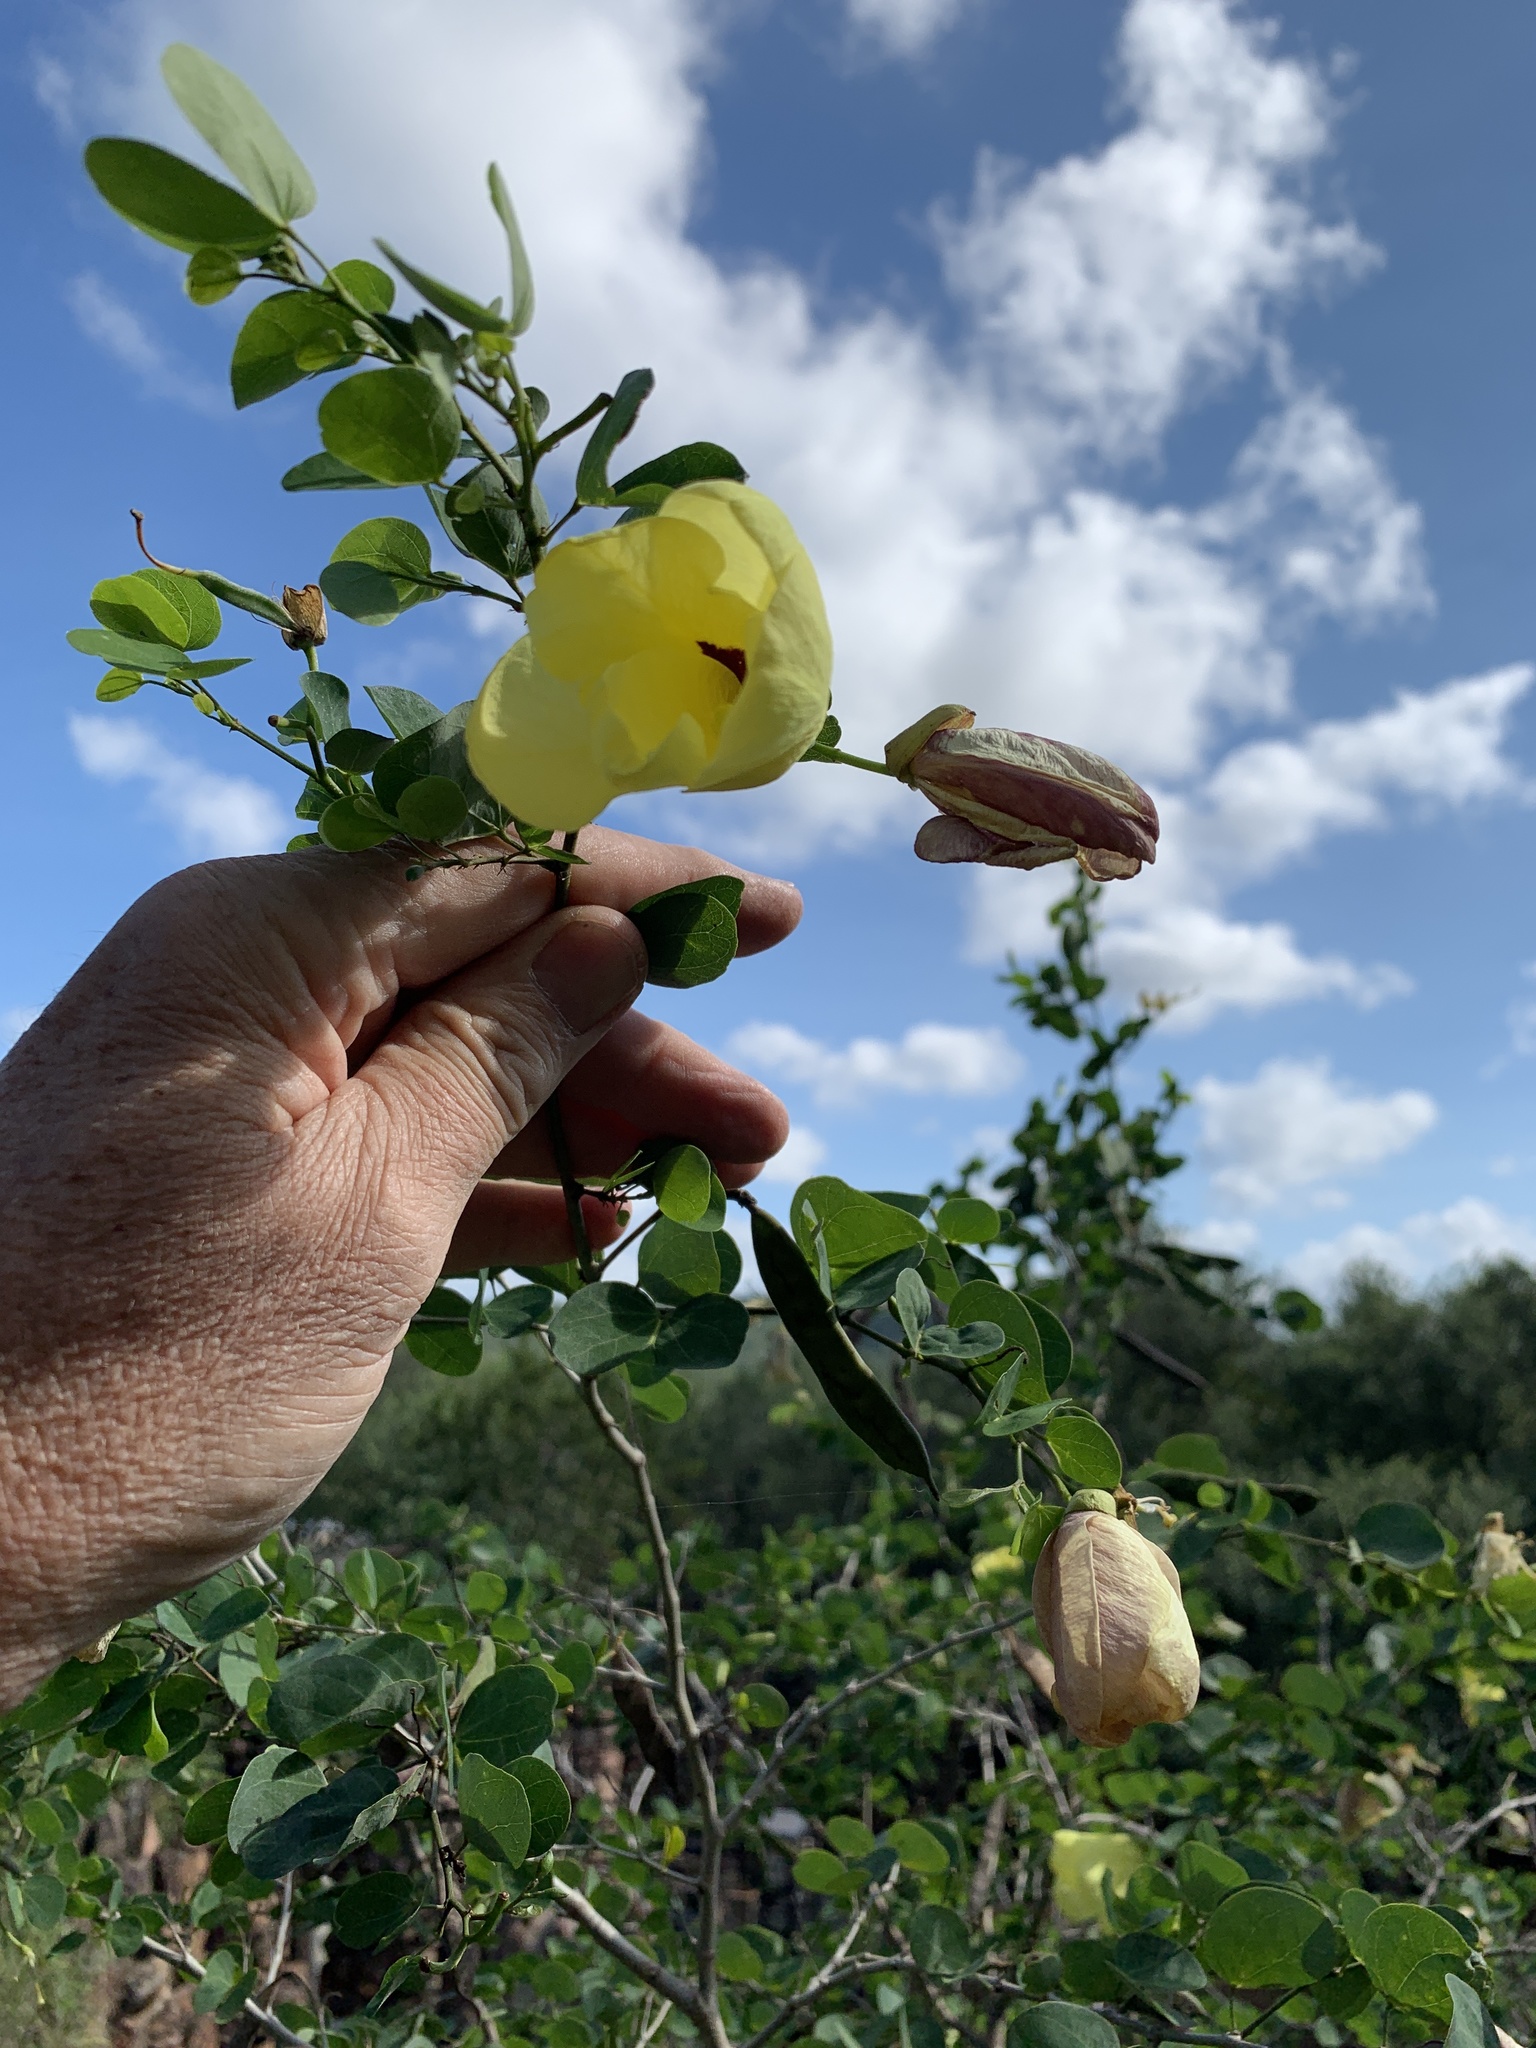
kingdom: Plantae
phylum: Tracheophyta
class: Magnoliopsida
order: Fabales
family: Fabaceae
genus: Bauhinia
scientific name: Bauhinia tomentosa
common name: Bell bauhinia
